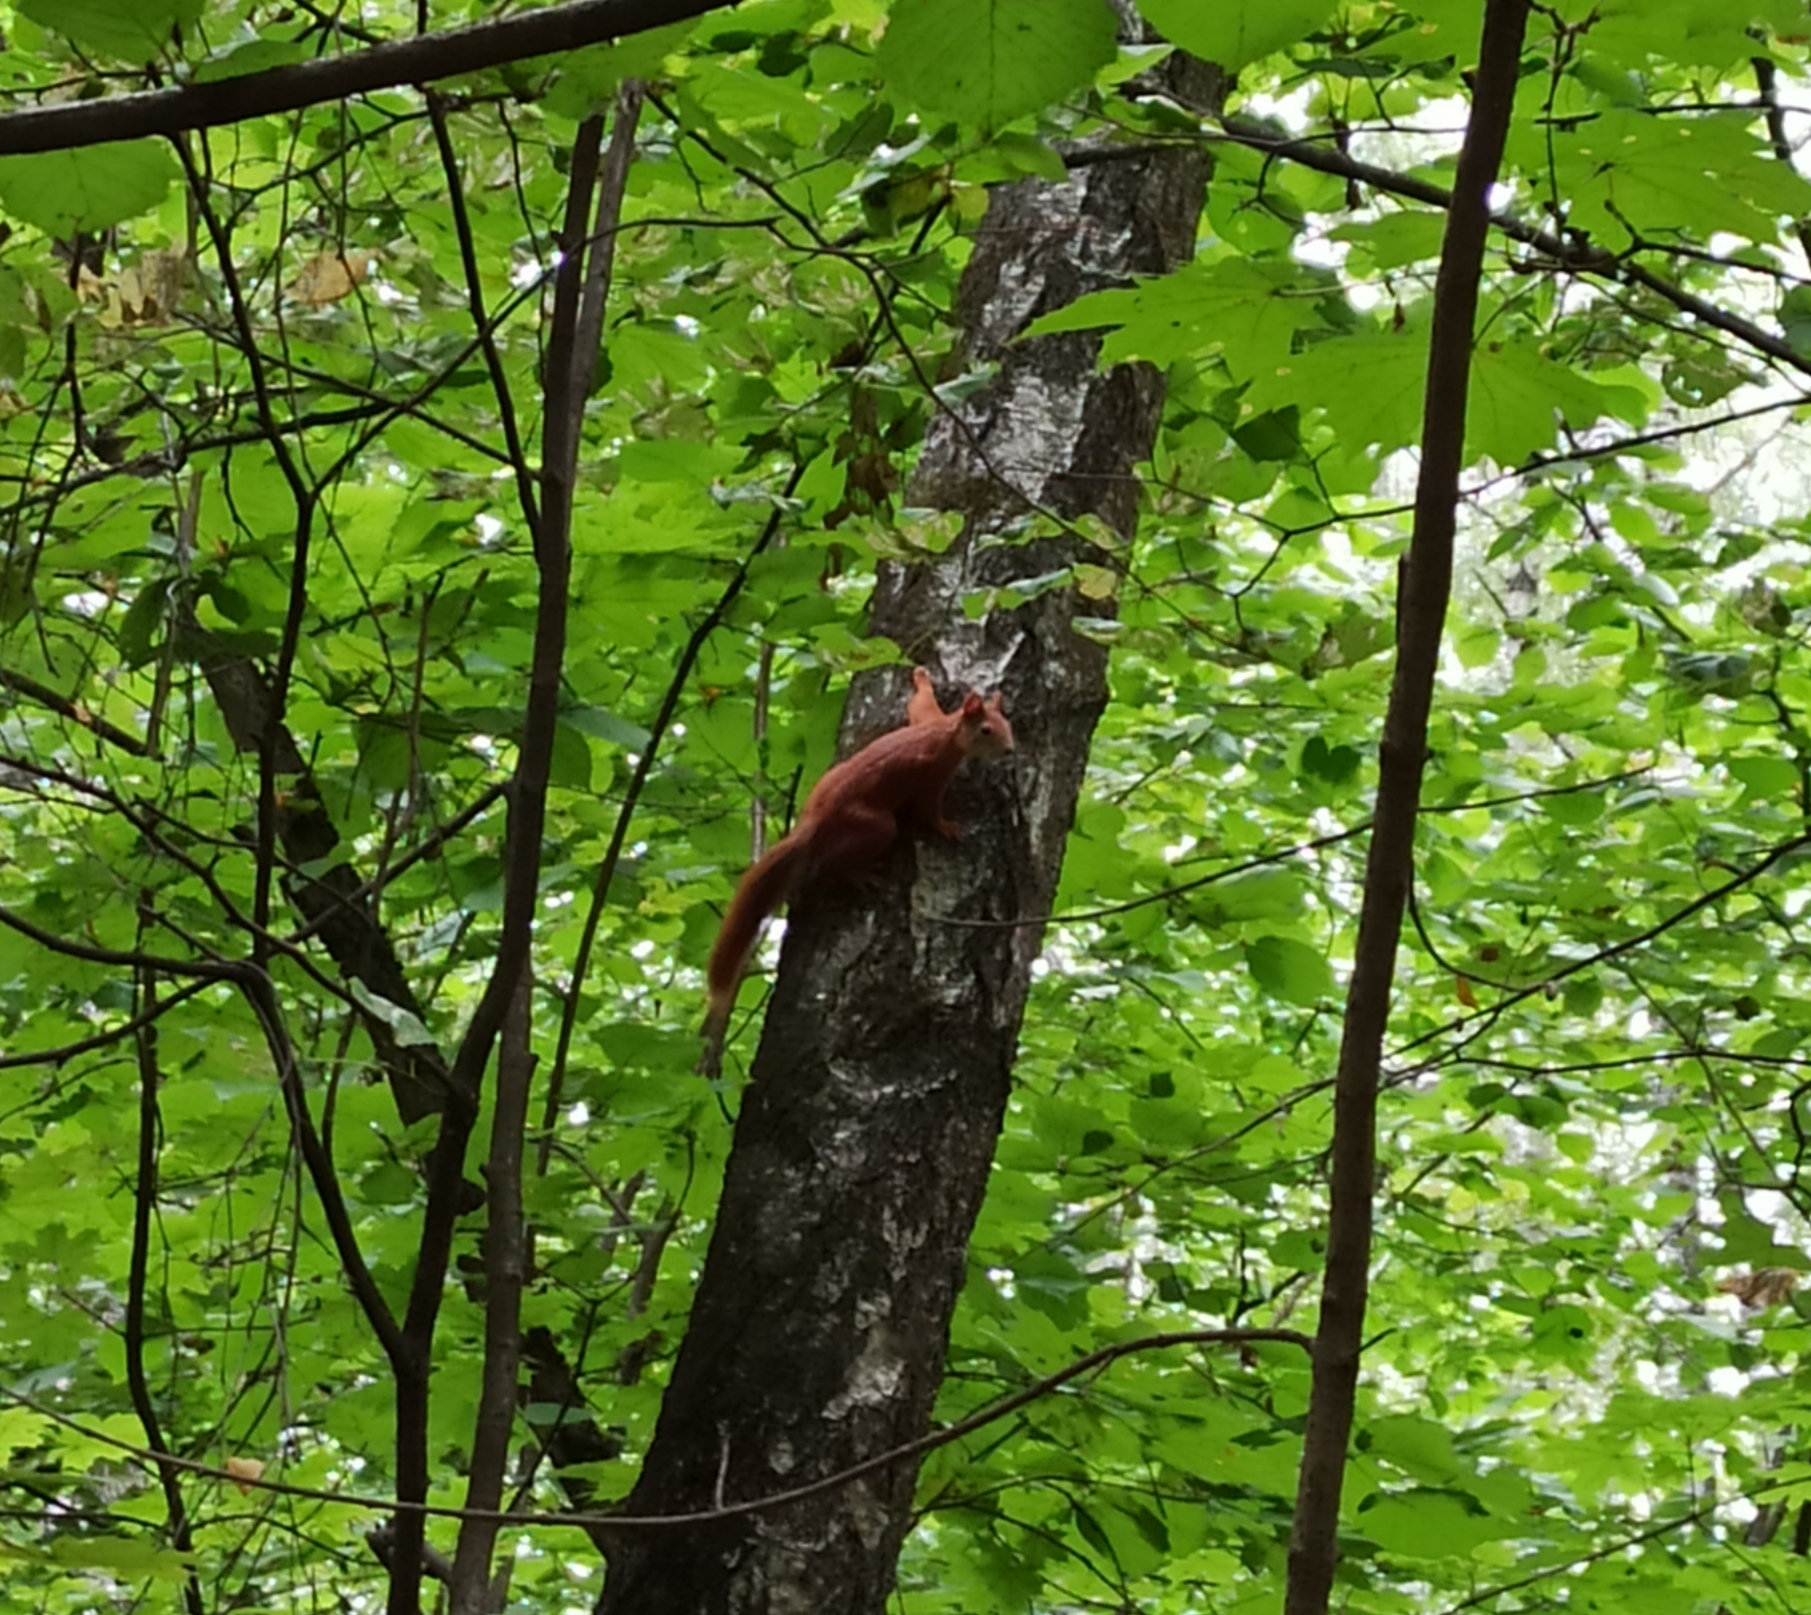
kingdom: Animalia
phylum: Chordata
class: Mammalia
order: Rodentia
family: Sciuridae
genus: Sciurus
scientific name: Sciurus vulgaris
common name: Eurasian red squirrel
